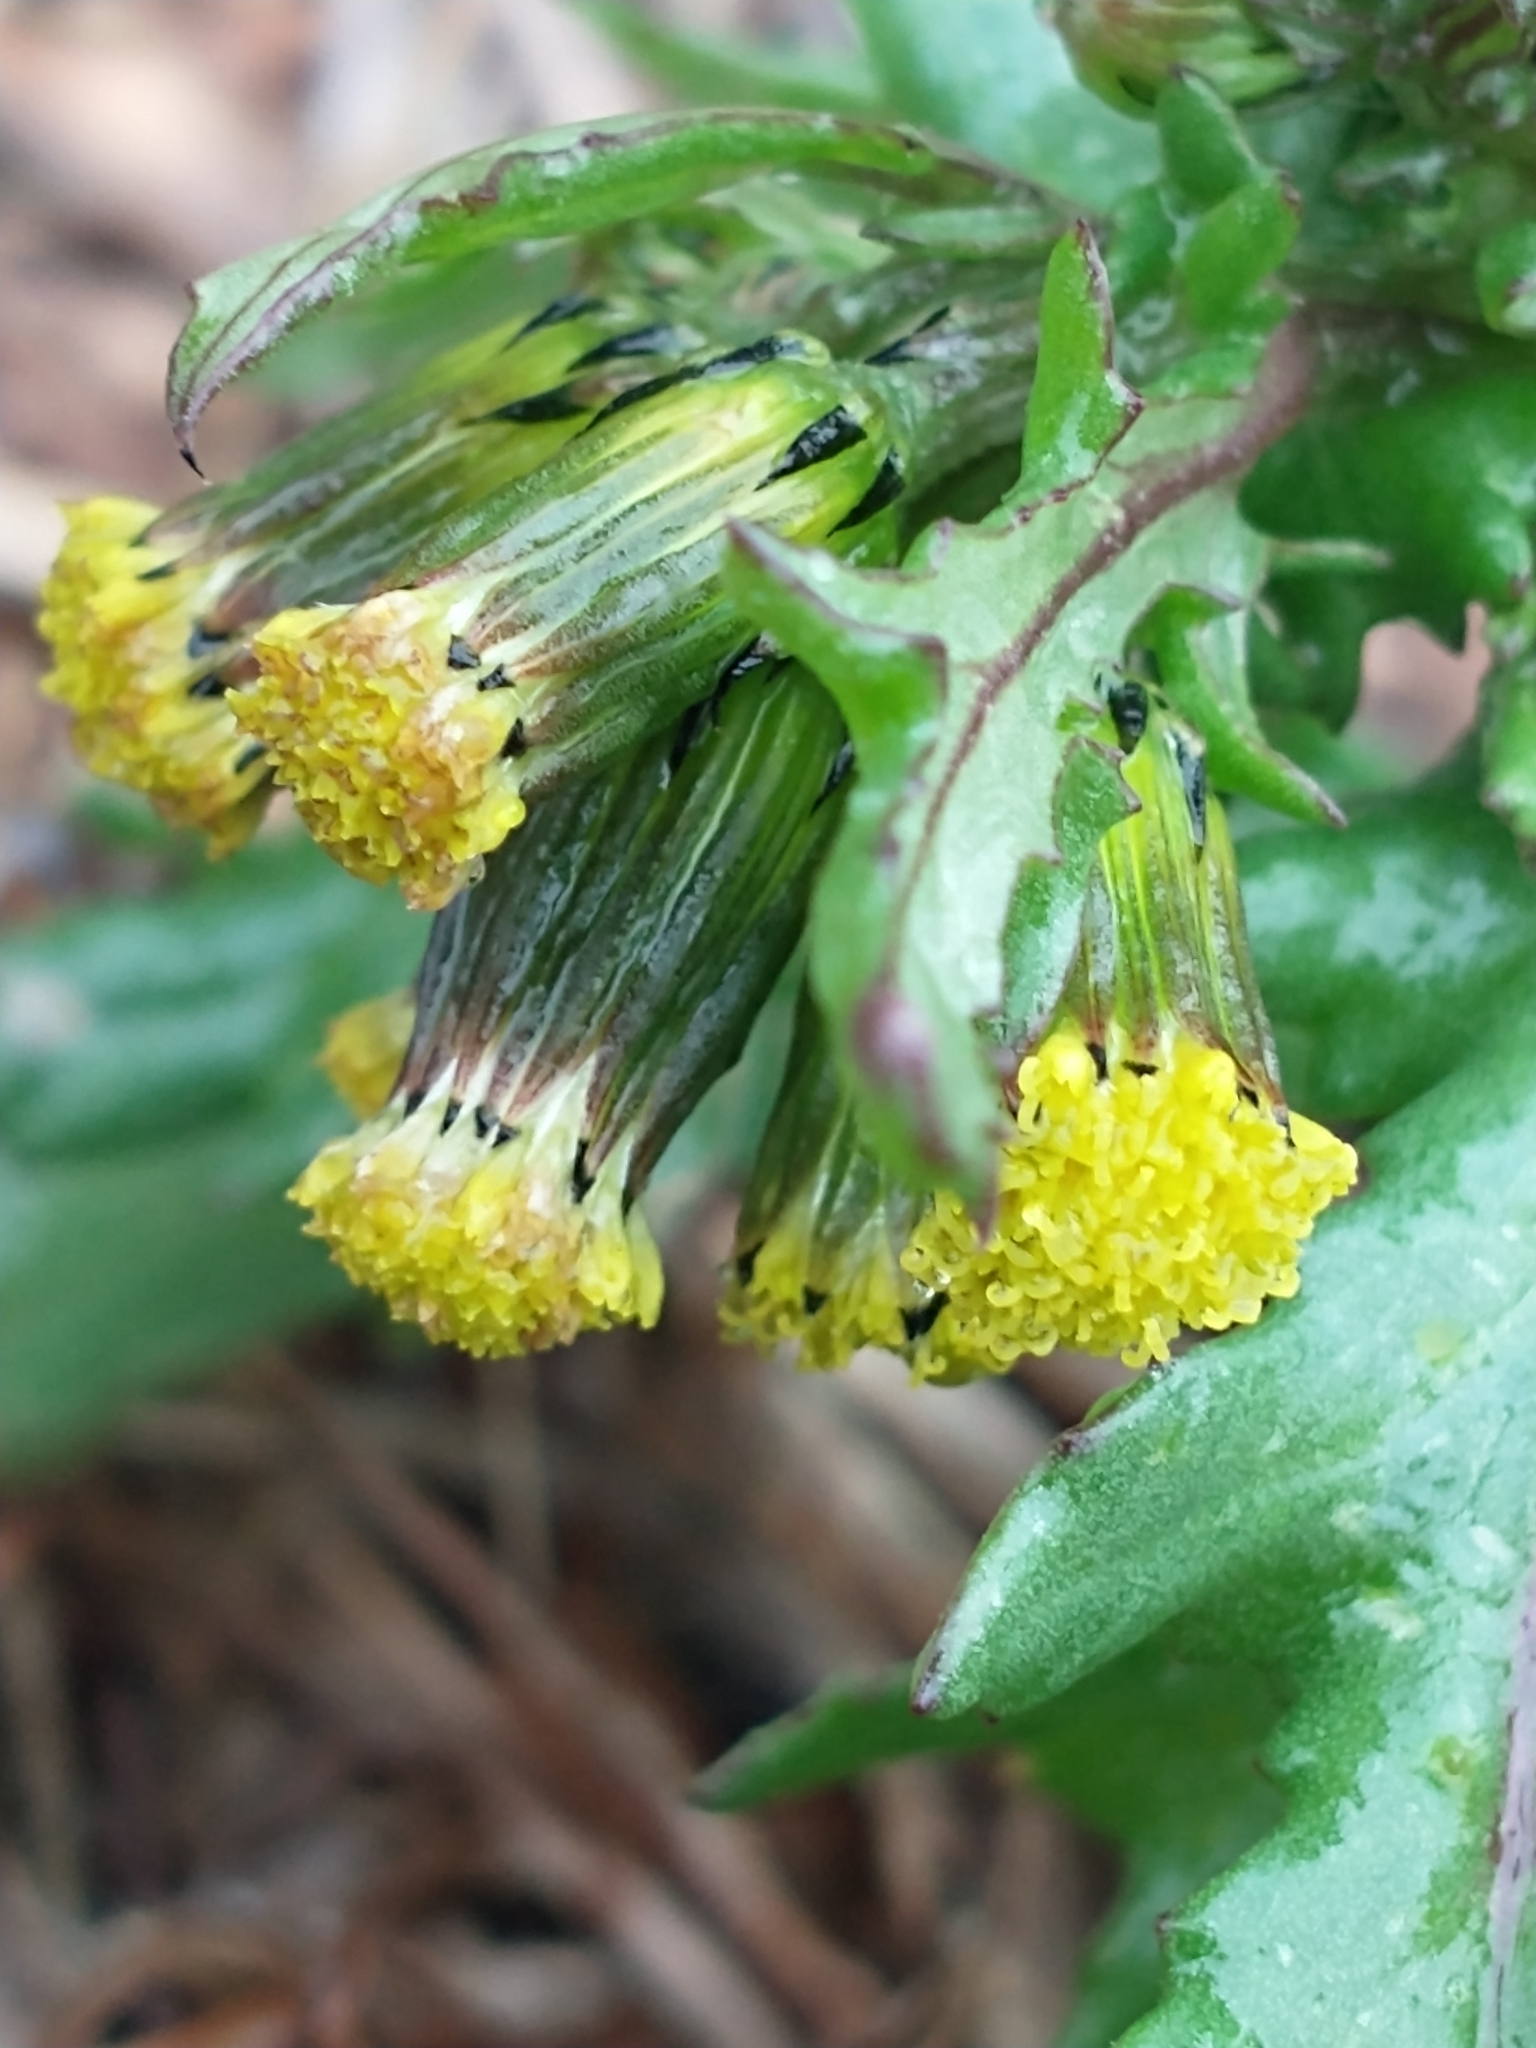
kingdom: Plantae
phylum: Tracheophyta
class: Magnoliopsida
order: Asterales
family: Asteraceae
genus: Senecio
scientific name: Senecio vulgaris
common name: Old-man-in-the-spring
